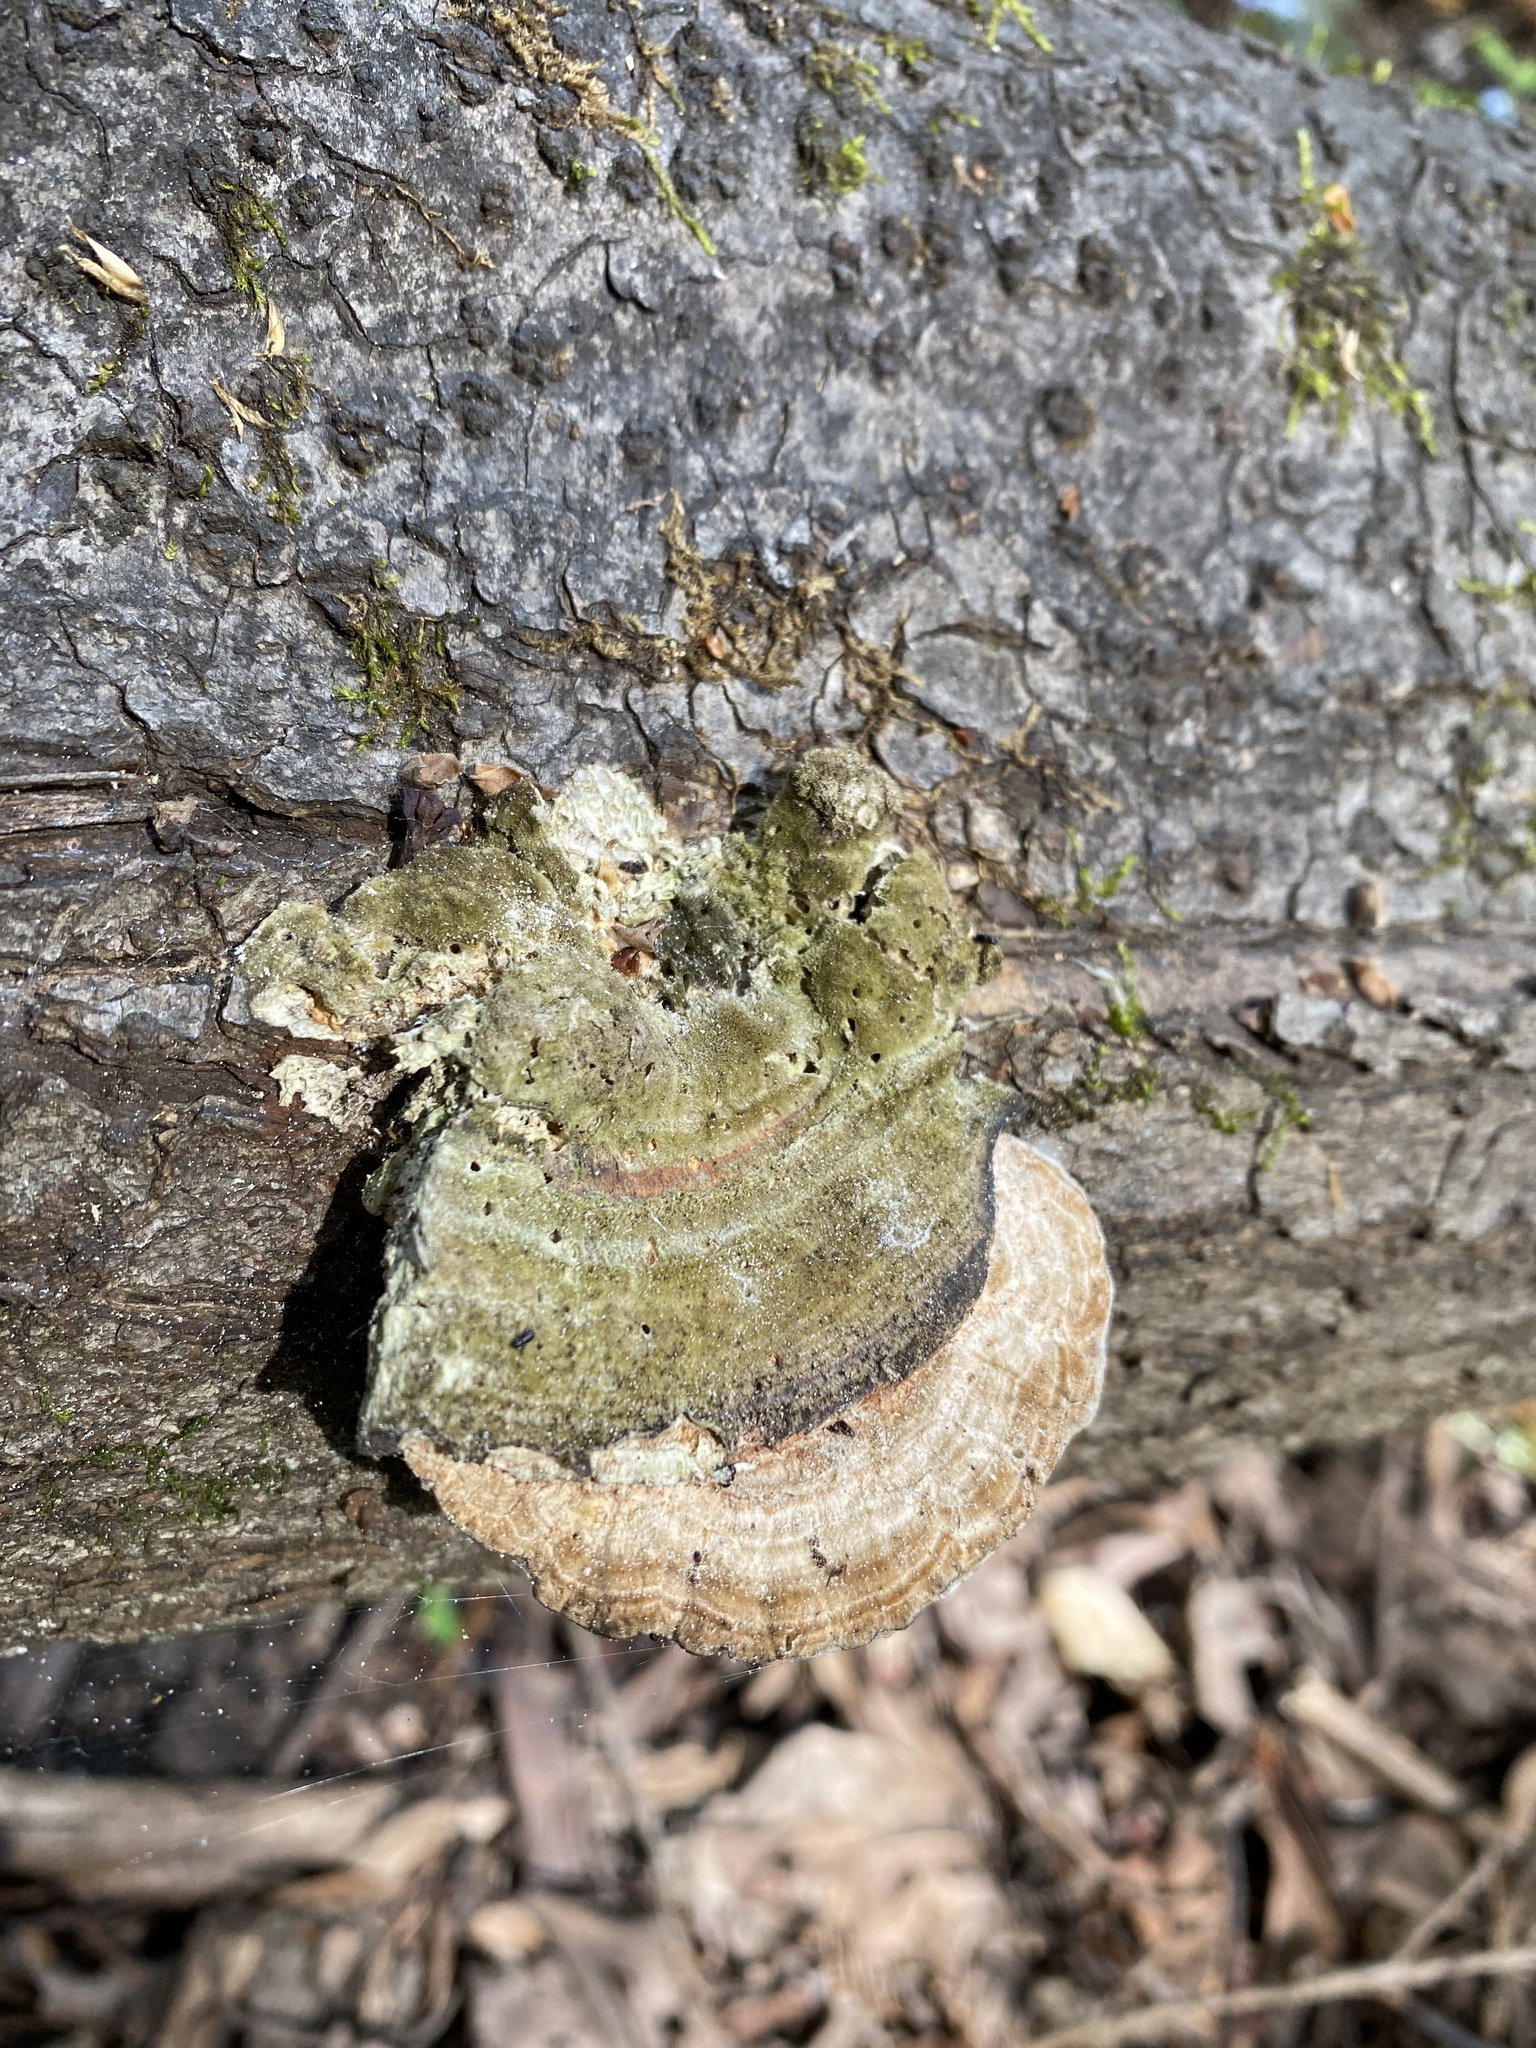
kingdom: Fungi
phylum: Basidiomycota
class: Agaricomycetes
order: Polyporales
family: Polyporaceae
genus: Lenzites
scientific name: Lenzites betulinus
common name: Birch mazegill
